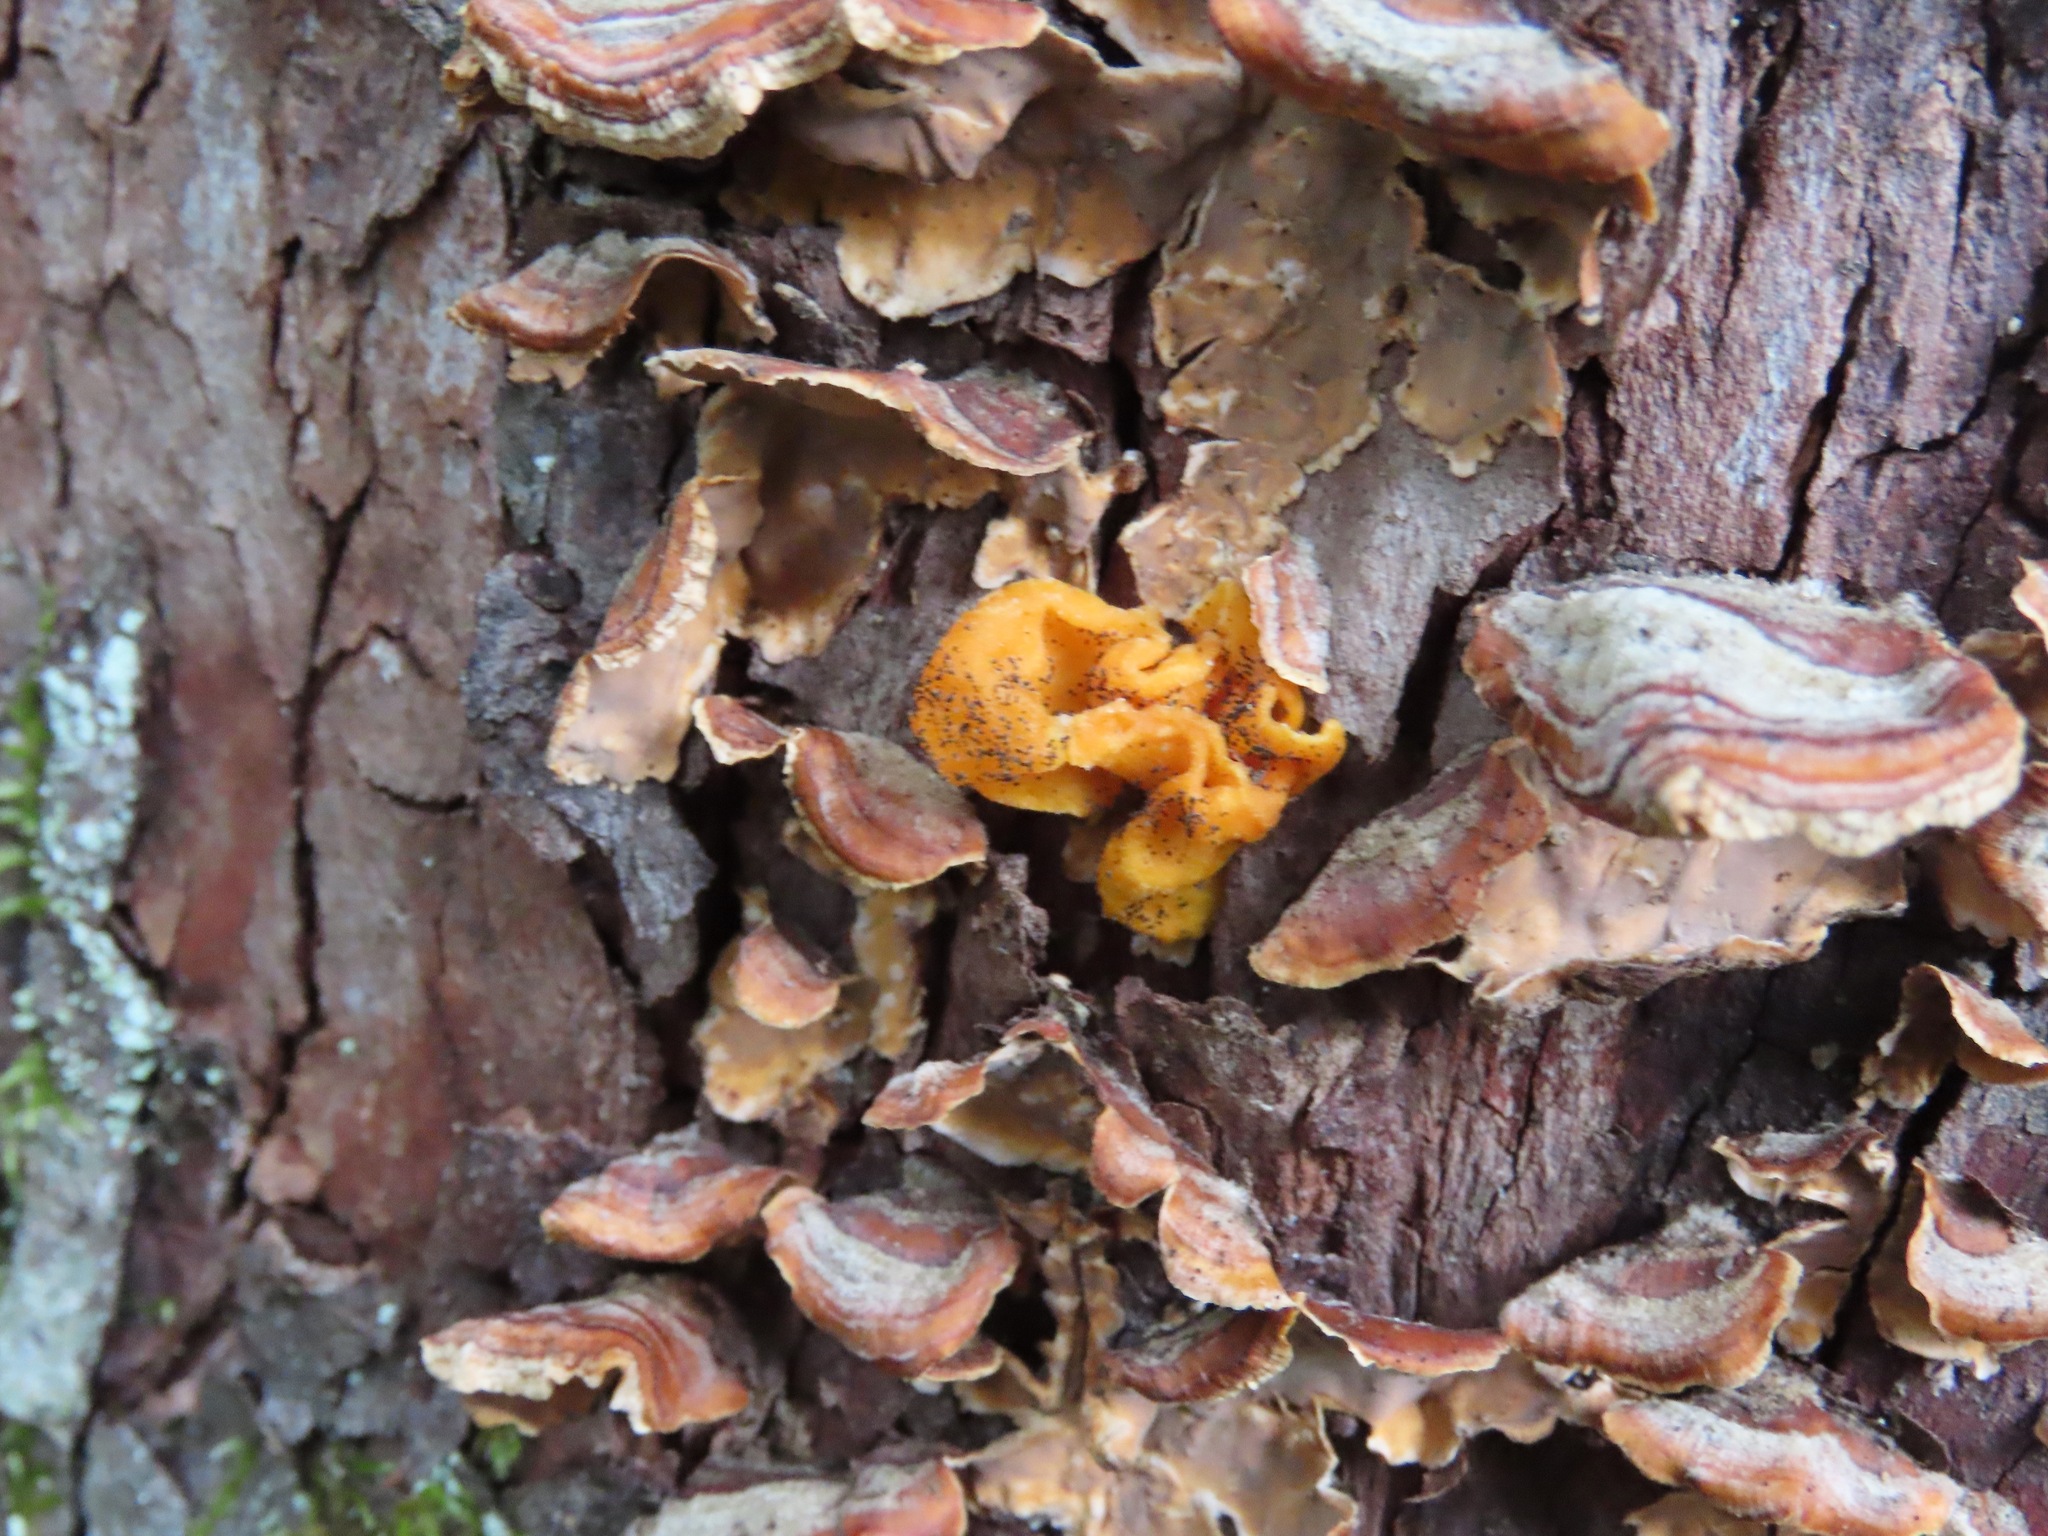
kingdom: Fungi
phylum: Basidiomycota
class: Tremellomycetes
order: Tremellales
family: Naemateliaceae
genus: Naematelia
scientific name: Naematelia aurantia
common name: Golden ear
